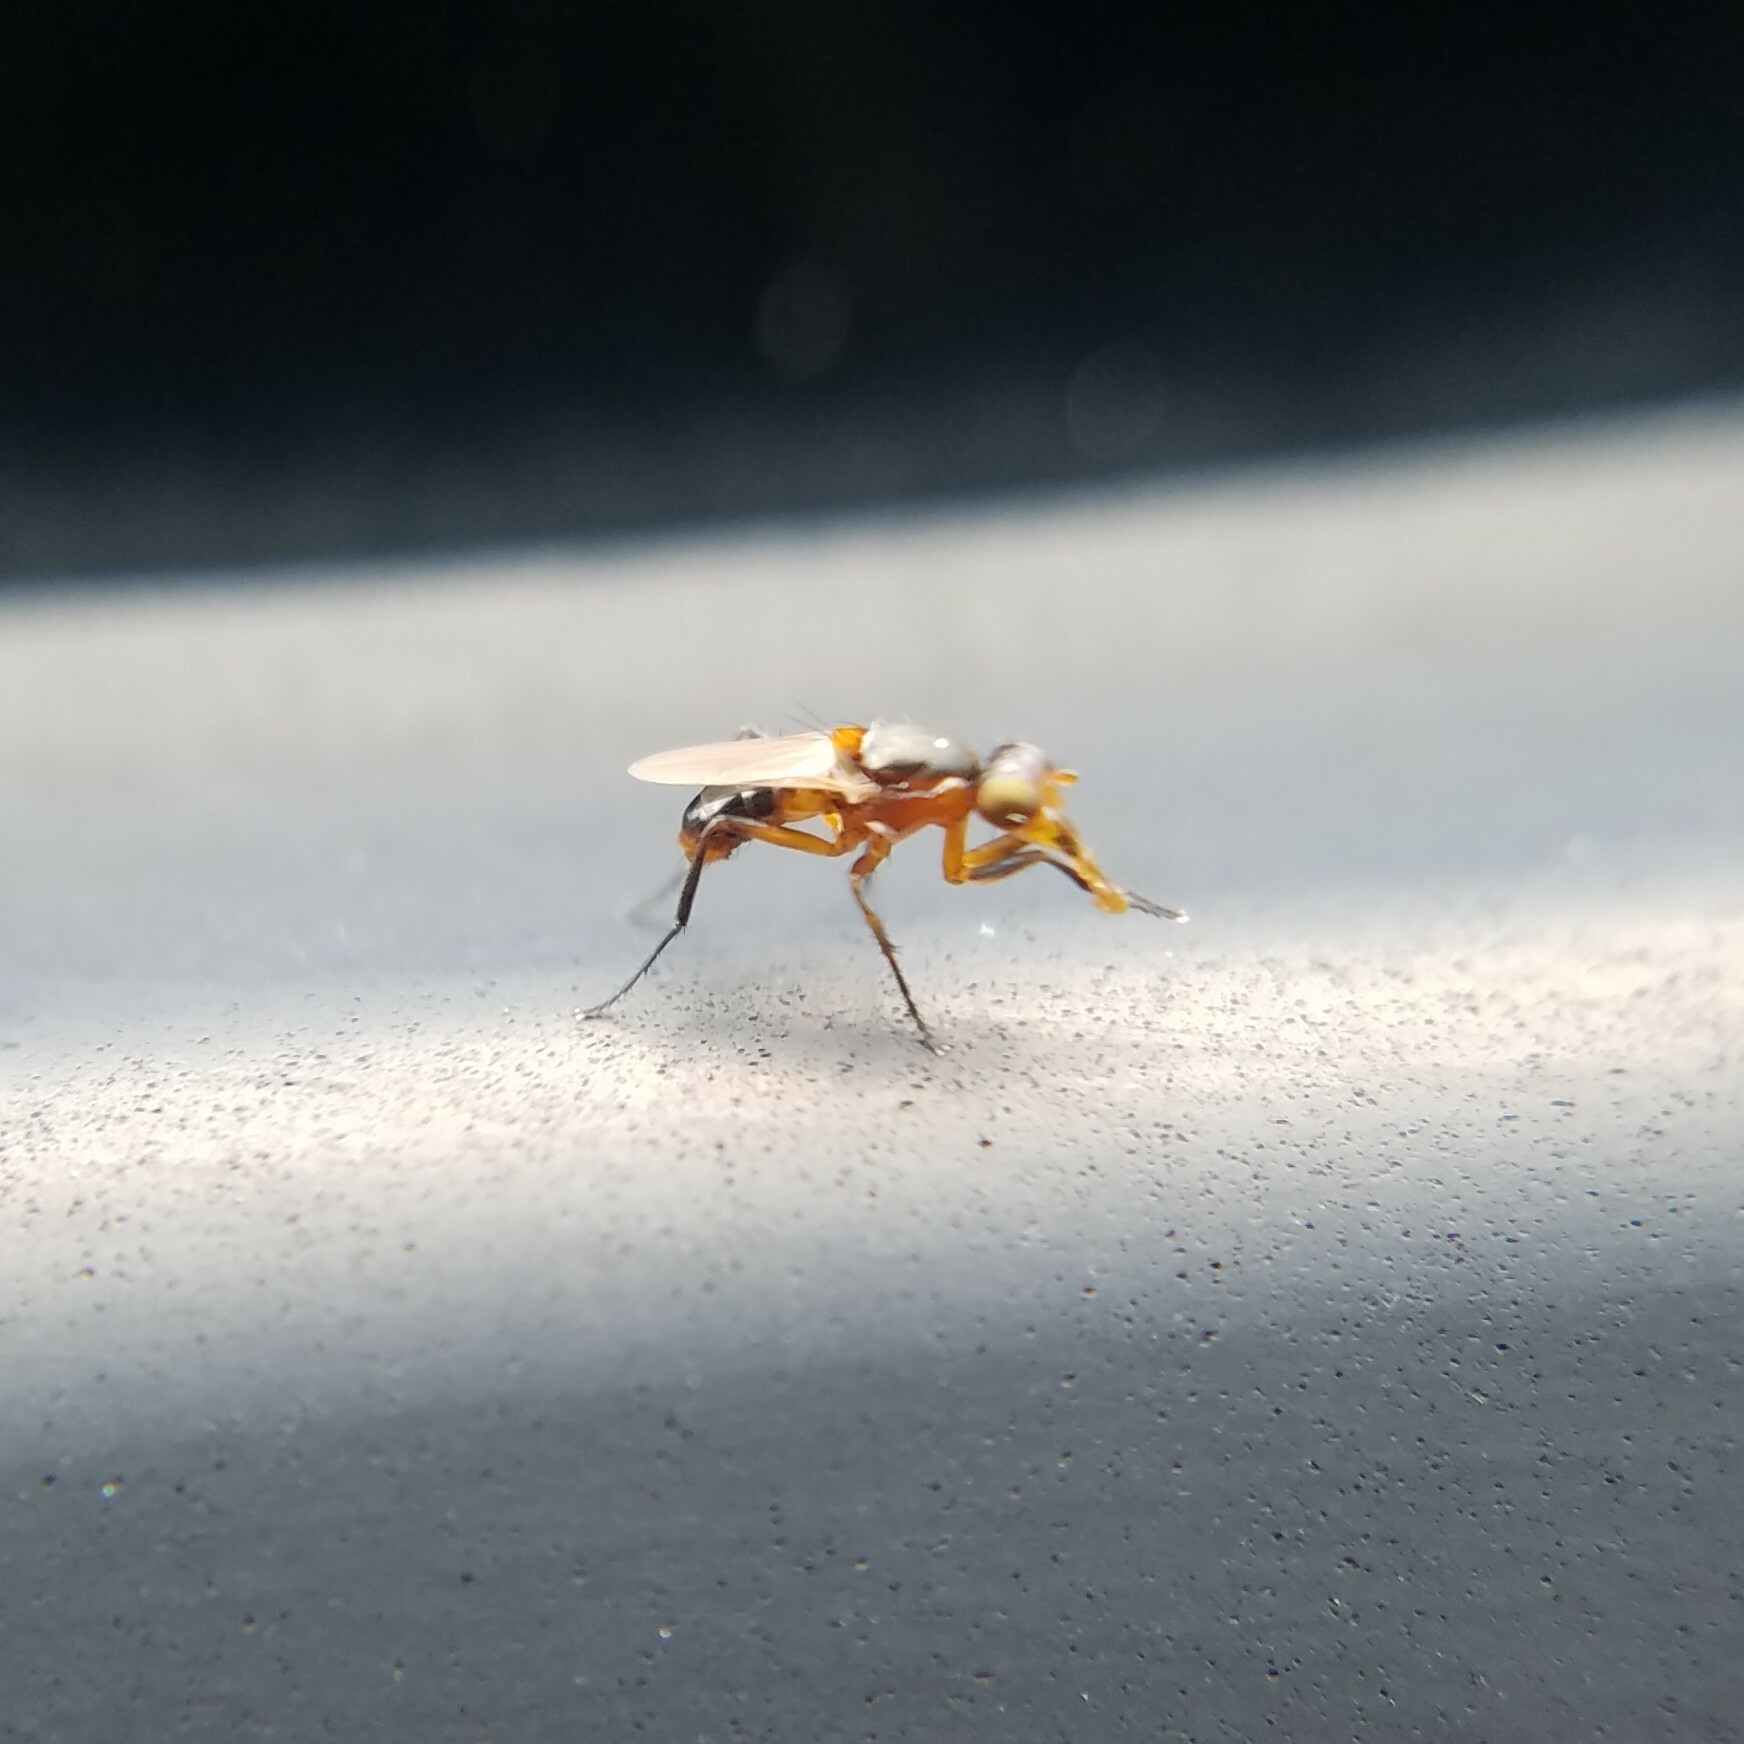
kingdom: Animalia
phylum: Arthropoda
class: Insecta
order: Diptera
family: Sepsidae
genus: Saltella
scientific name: Saltella sphondylii
